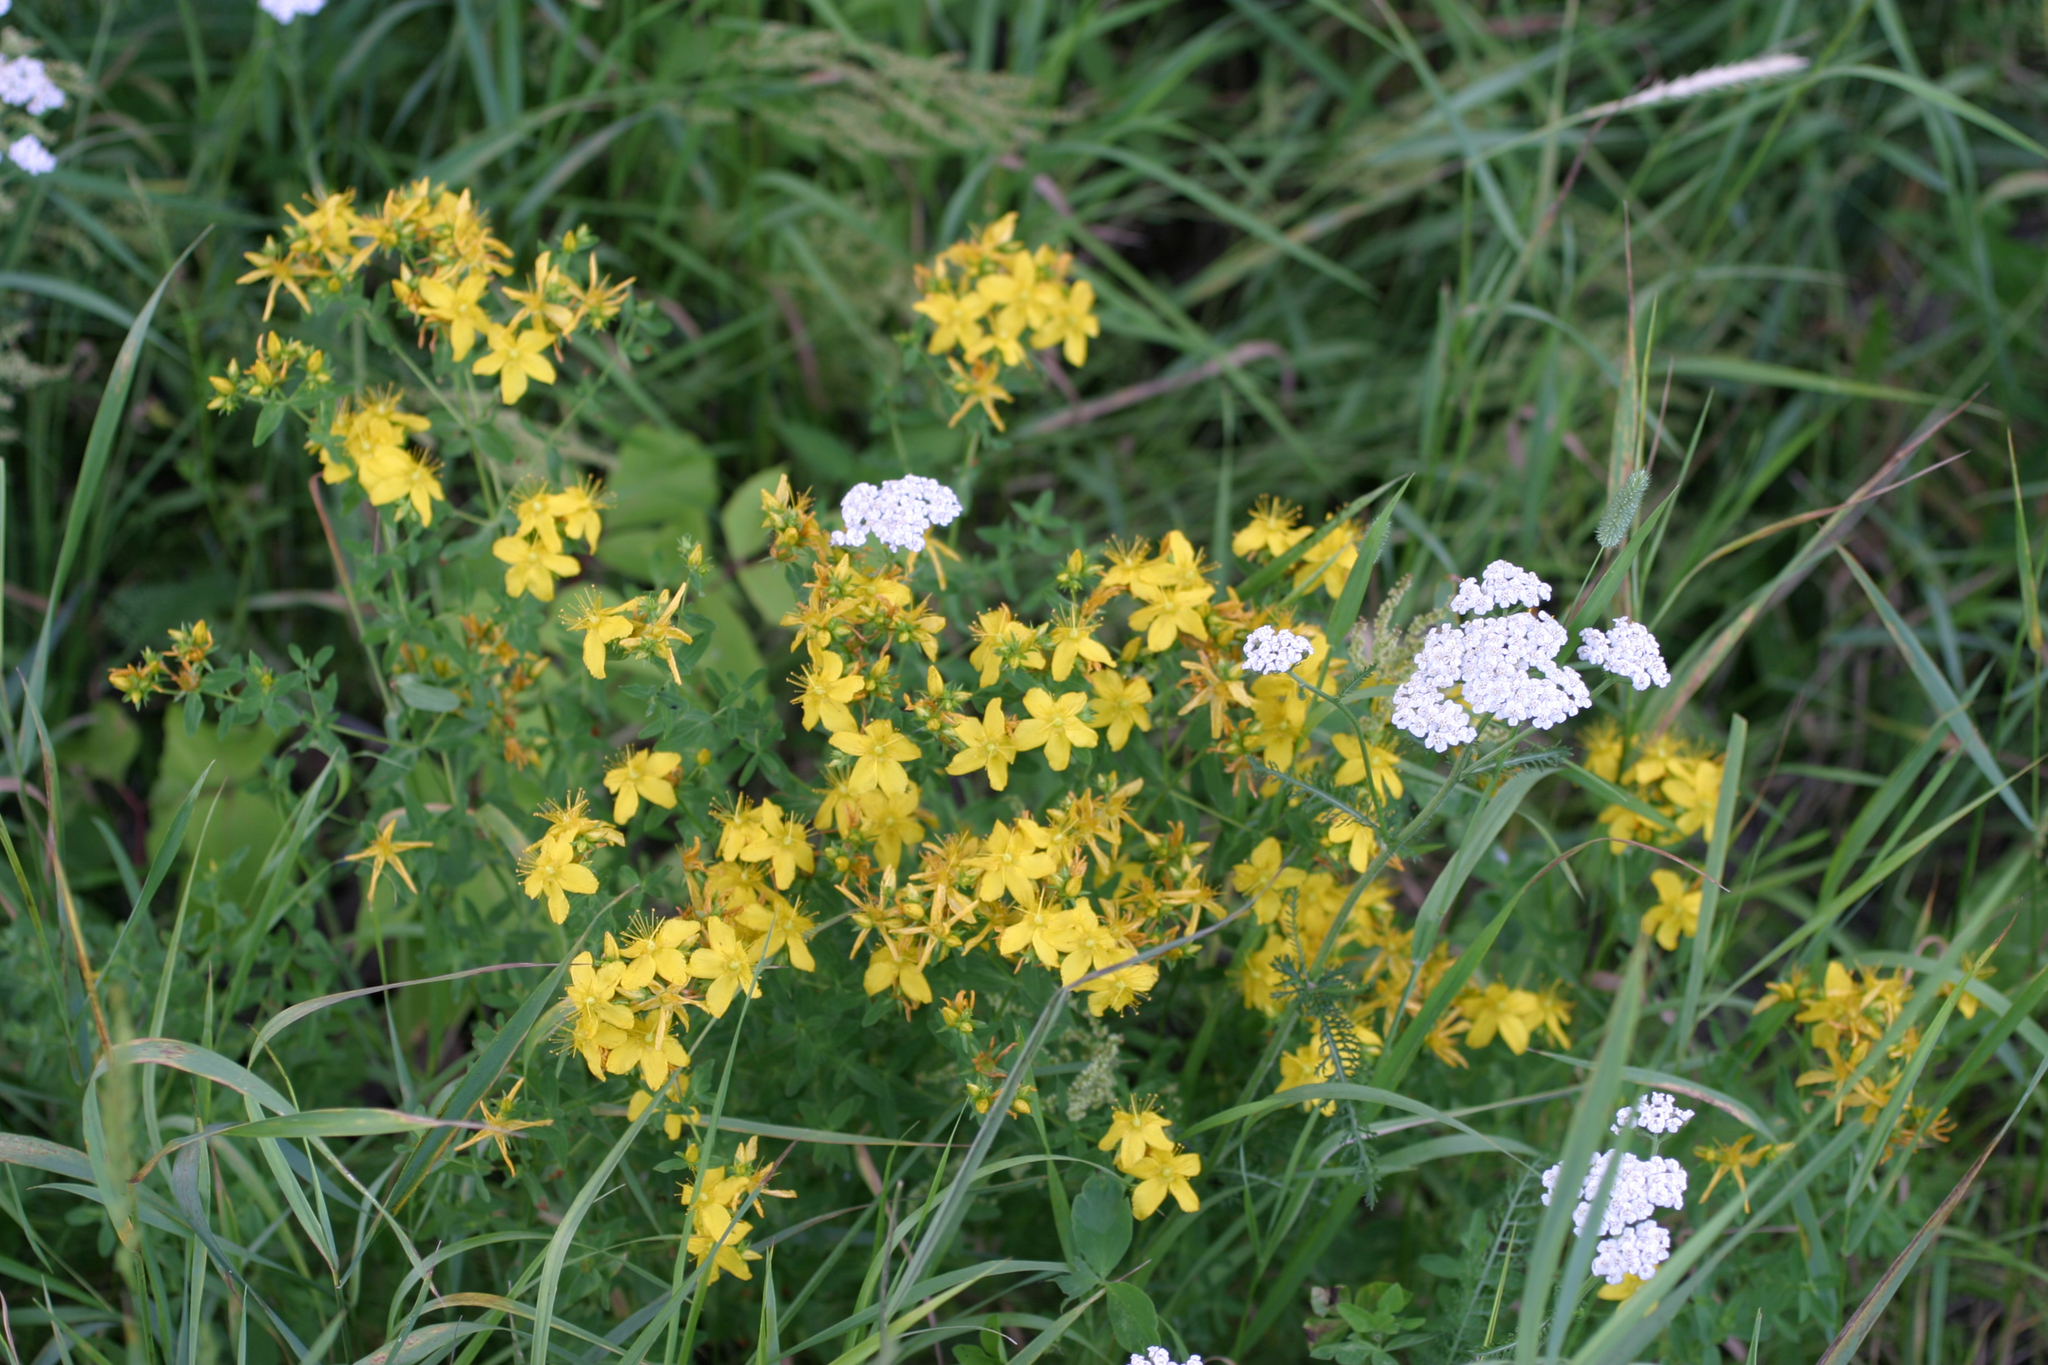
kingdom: Plantae
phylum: Tracheophyta
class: Magnoliopsida
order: Malpighiales
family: Hypericaceae
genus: Hypericum
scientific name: Hypericum perforatum
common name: Common st. johnswort
